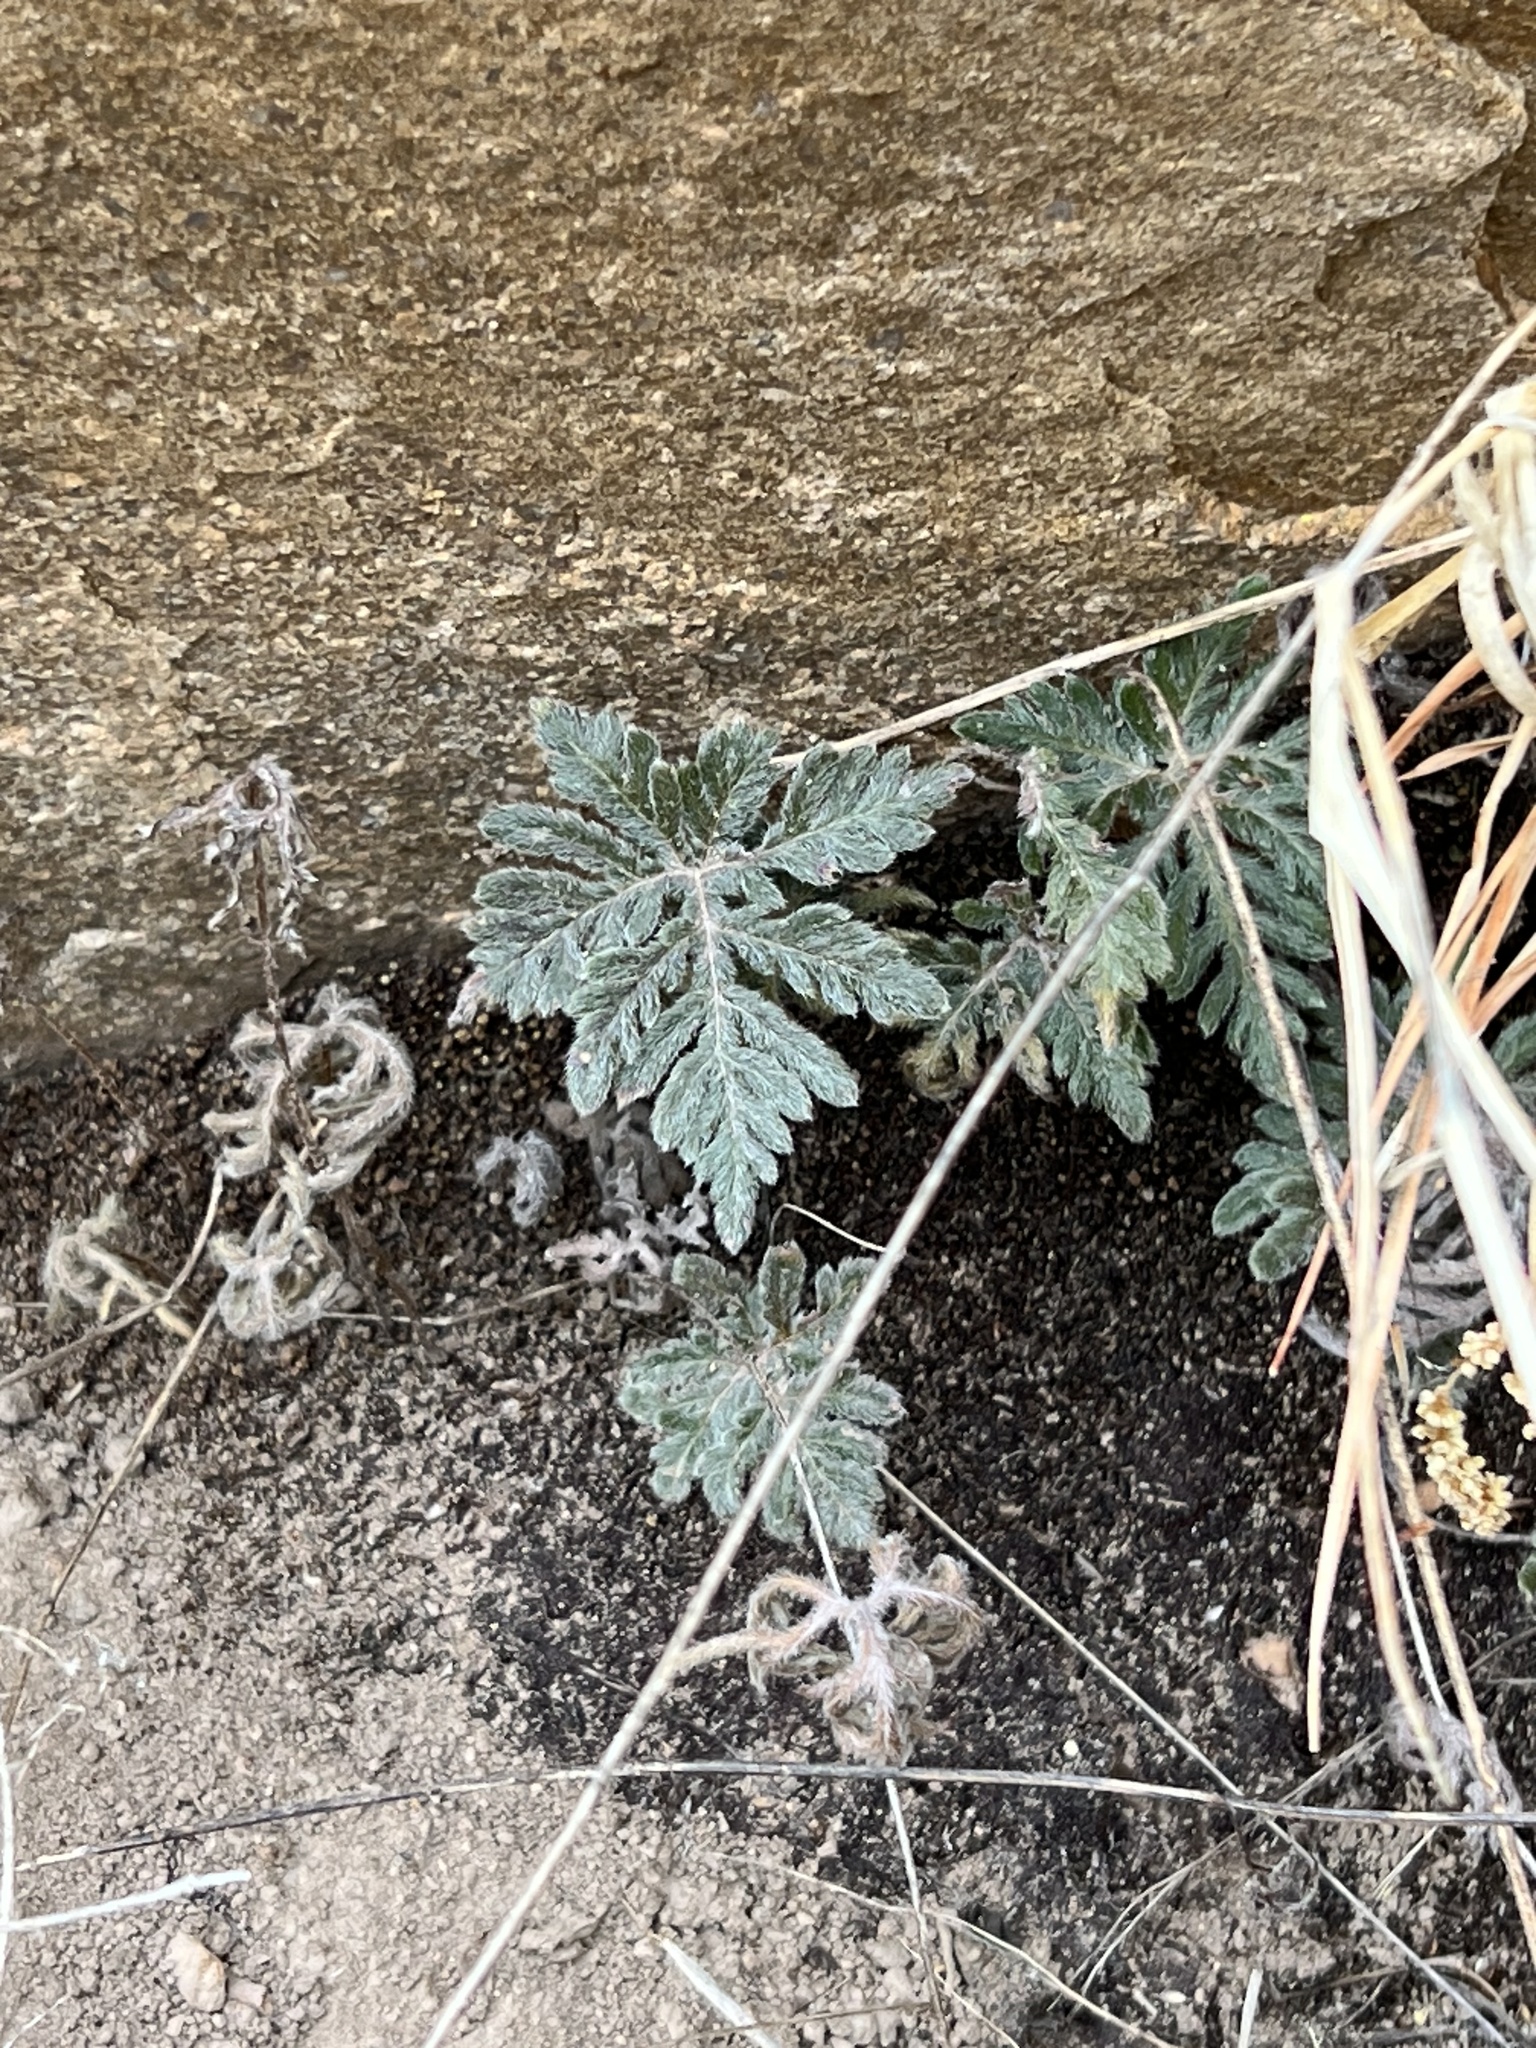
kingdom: Plantae
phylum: Tracheophyta
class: Polypodiopsida
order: Polypodiales
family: Pteridaceae
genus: Bommeria
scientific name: Bommeria hispida
